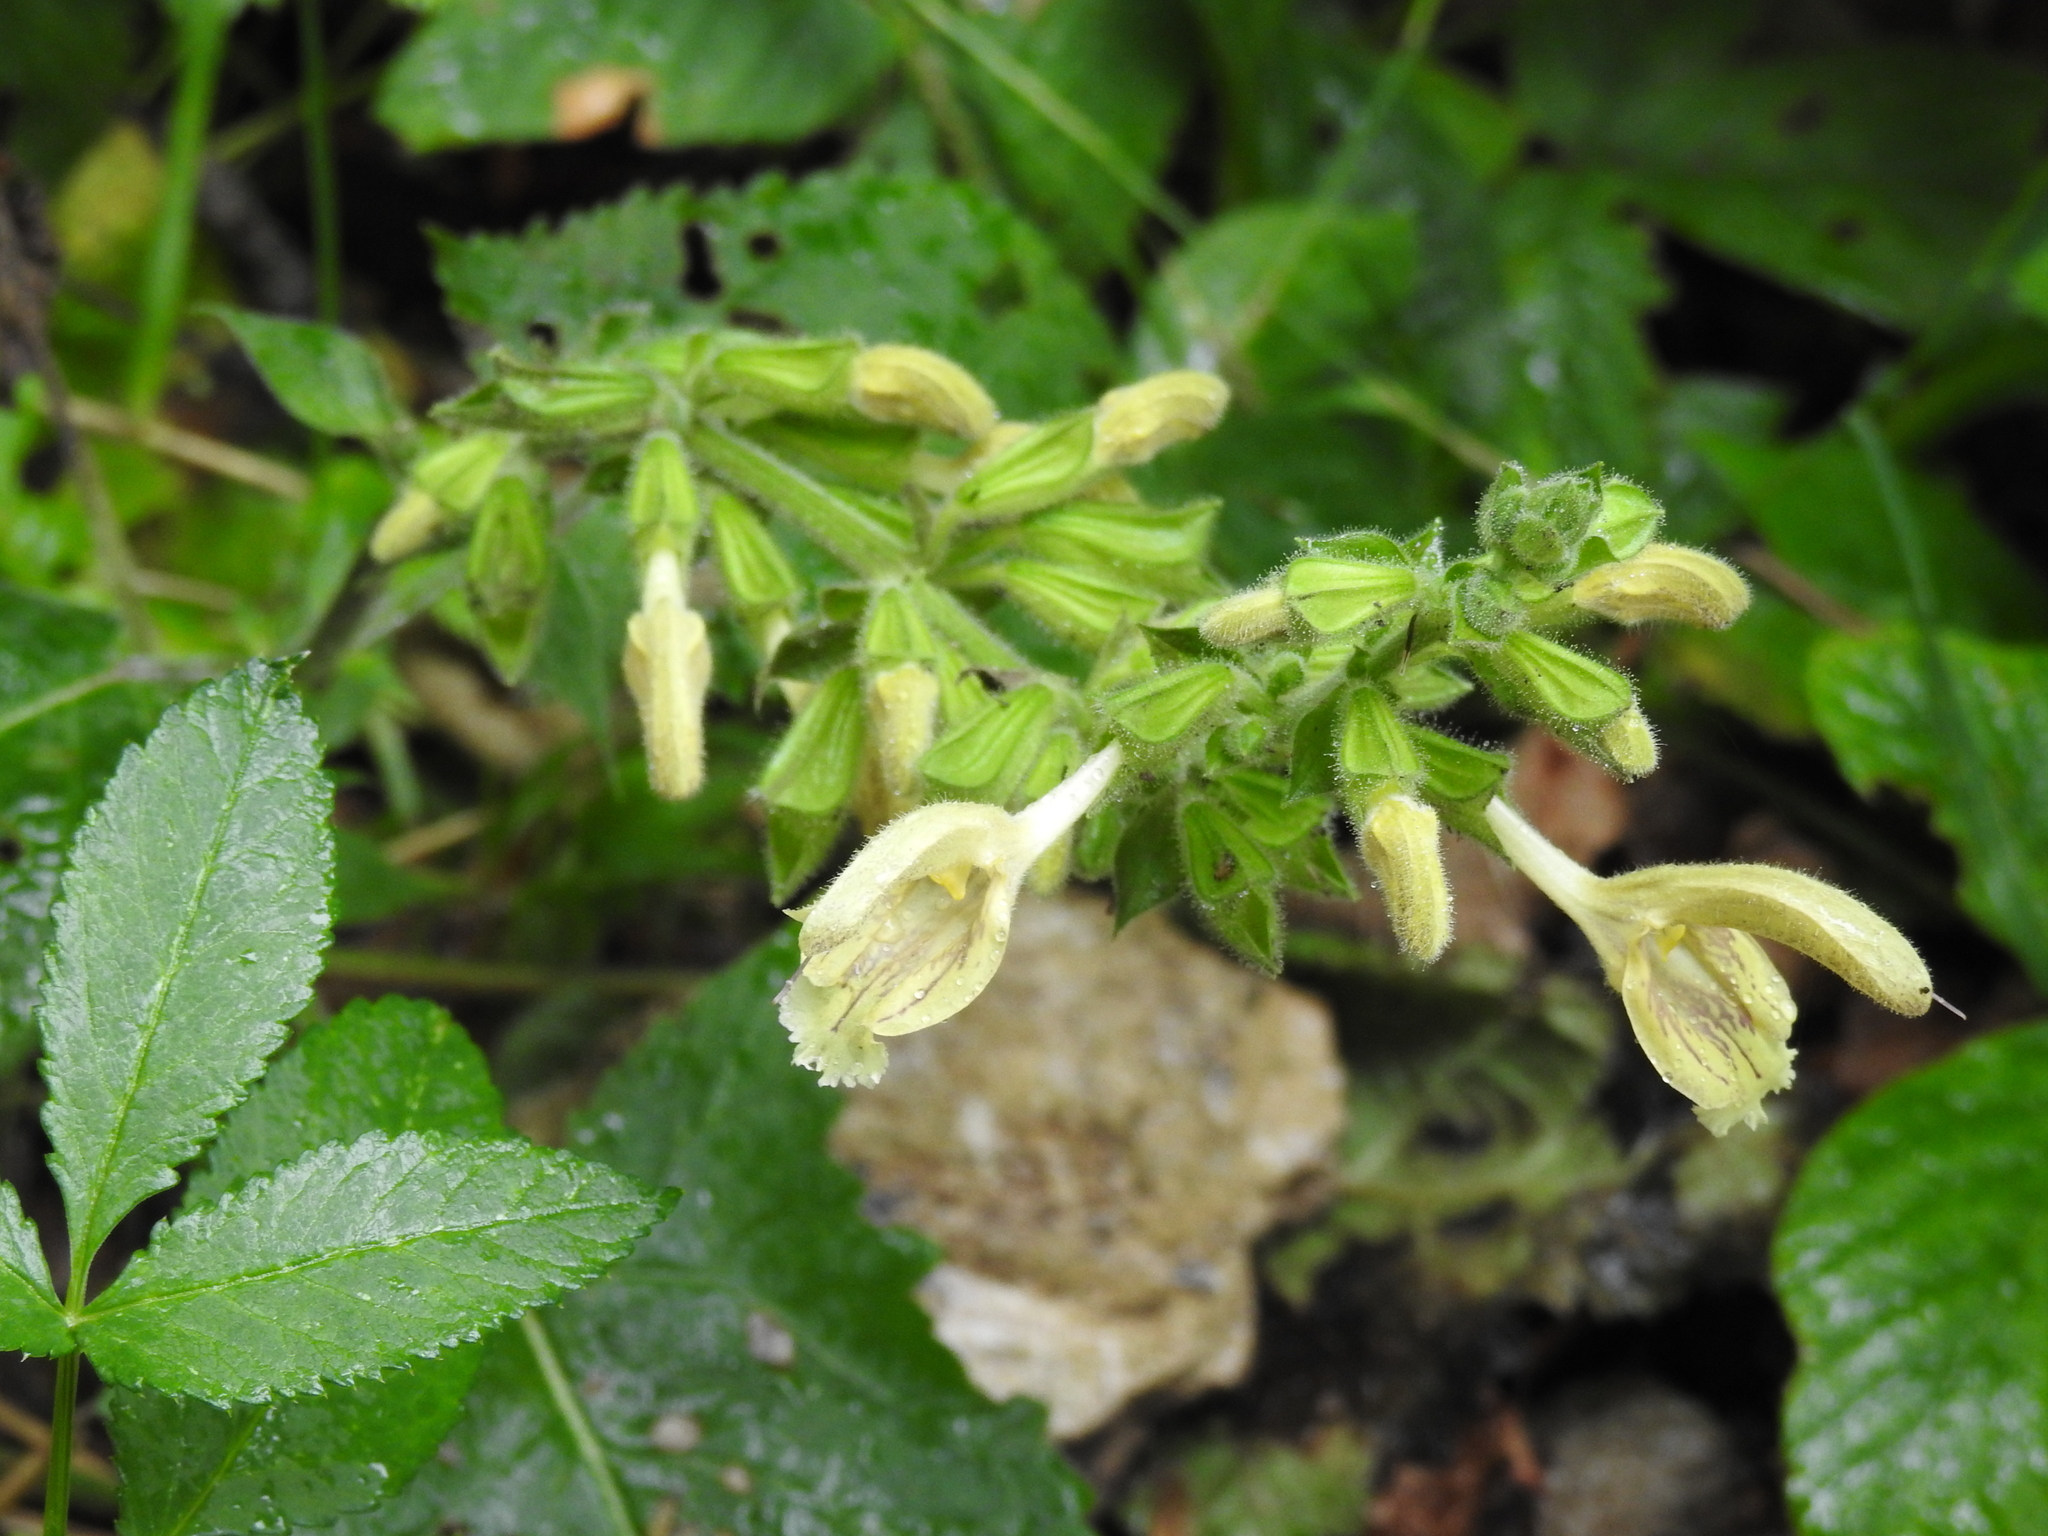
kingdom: Plantae
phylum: Tracheophyta
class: Magnoliopsida
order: Lamiales
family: Lamiaceae
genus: Salvia
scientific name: Salvia glutinosa
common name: Sticky clary
